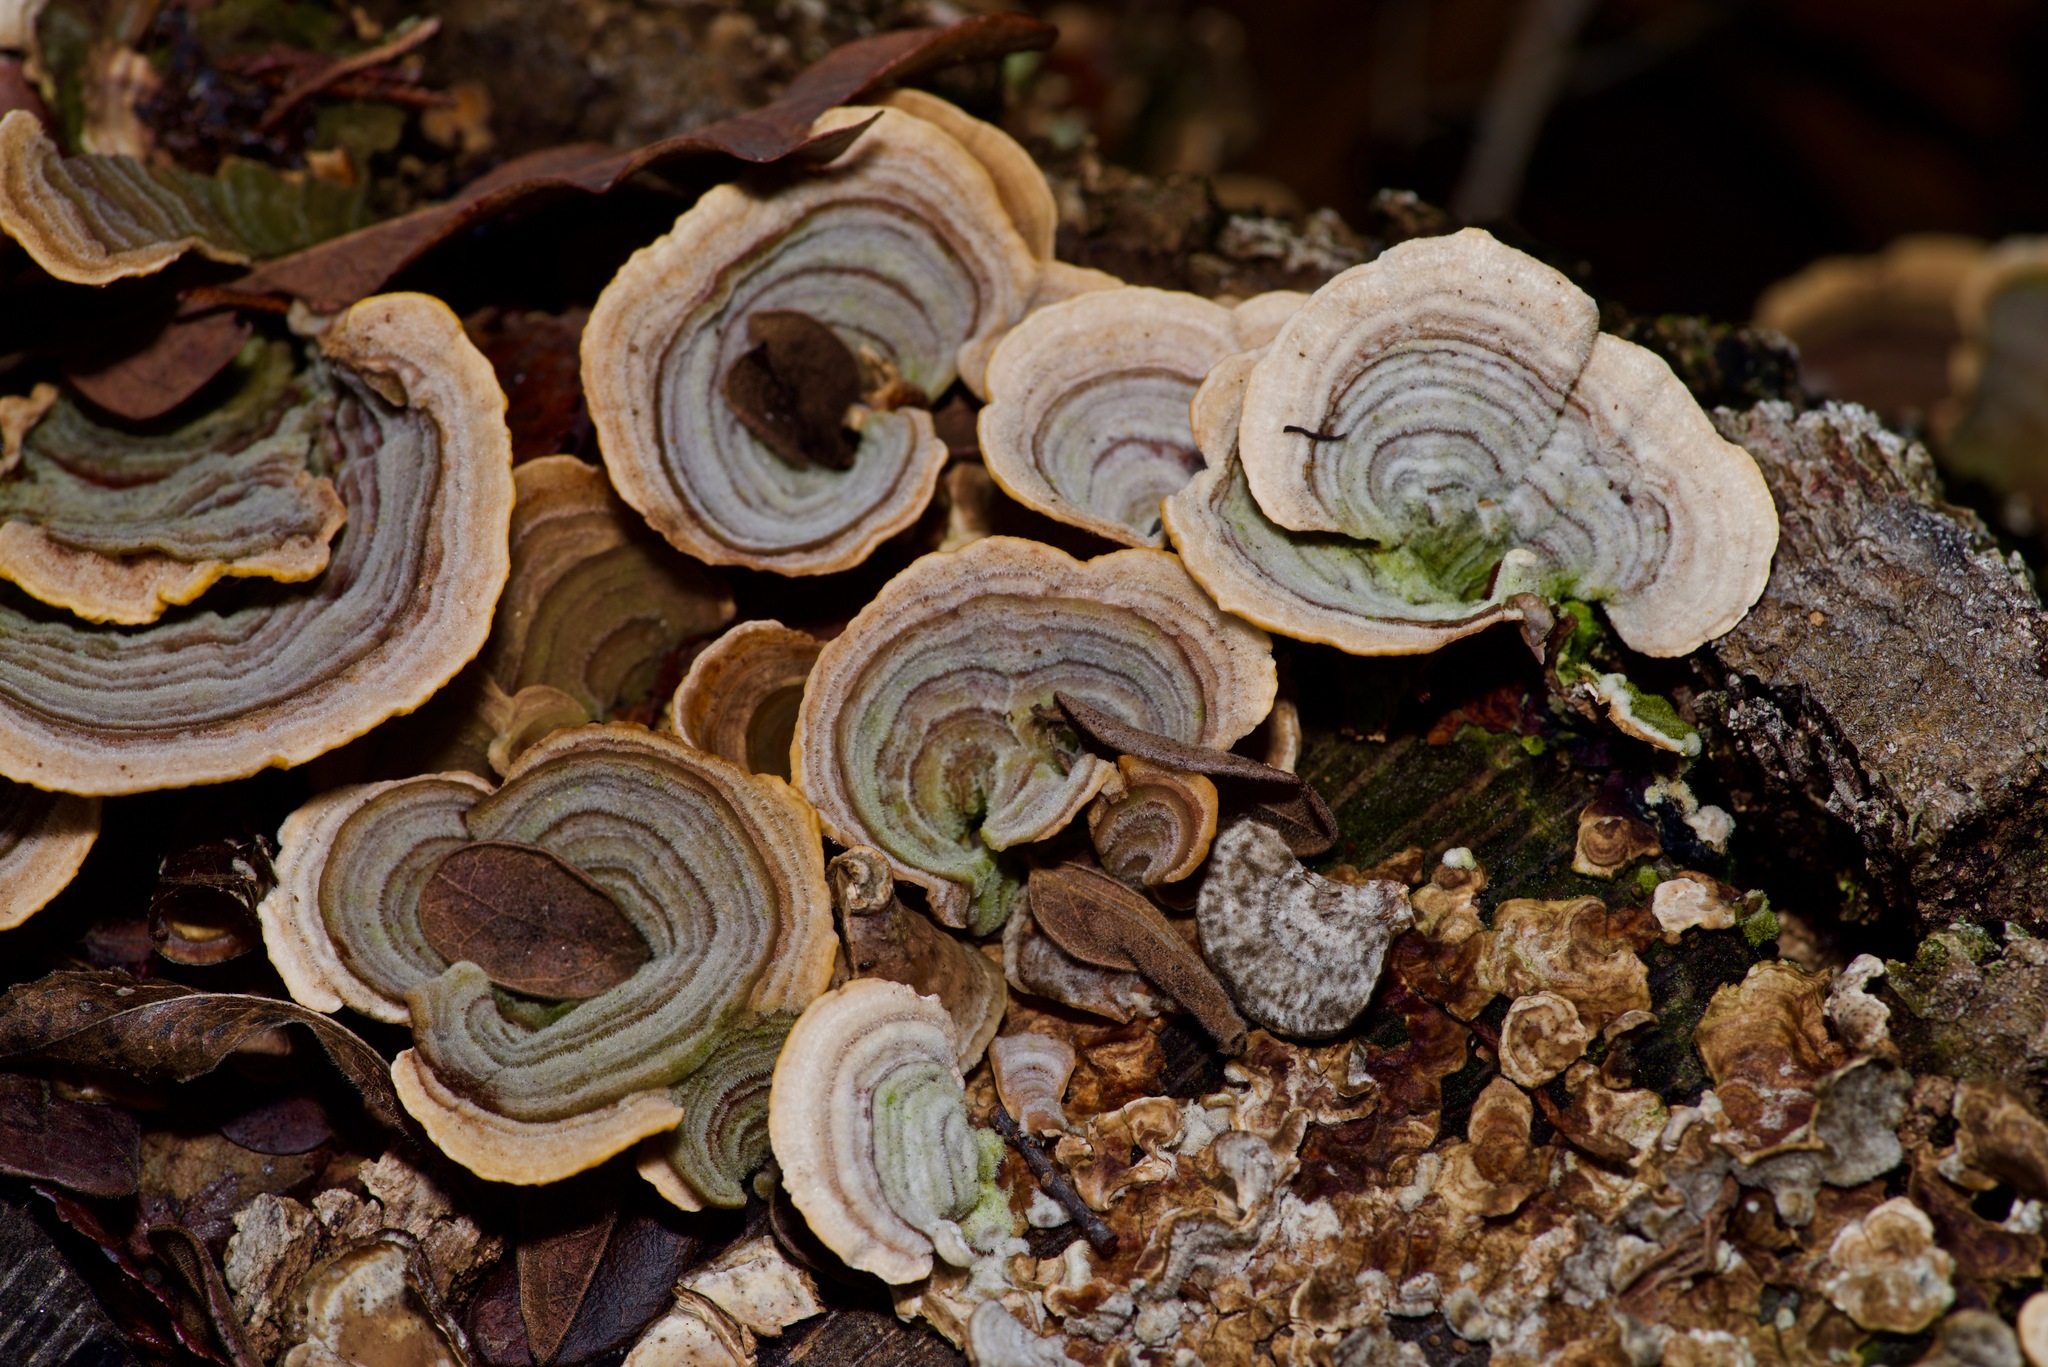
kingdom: Fungi
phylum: Basidiomycota
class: Agaricomycetes
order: Russulales
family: Stereaceae
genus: Stereum
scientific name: Stereum ostrea
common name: False turkeytail
